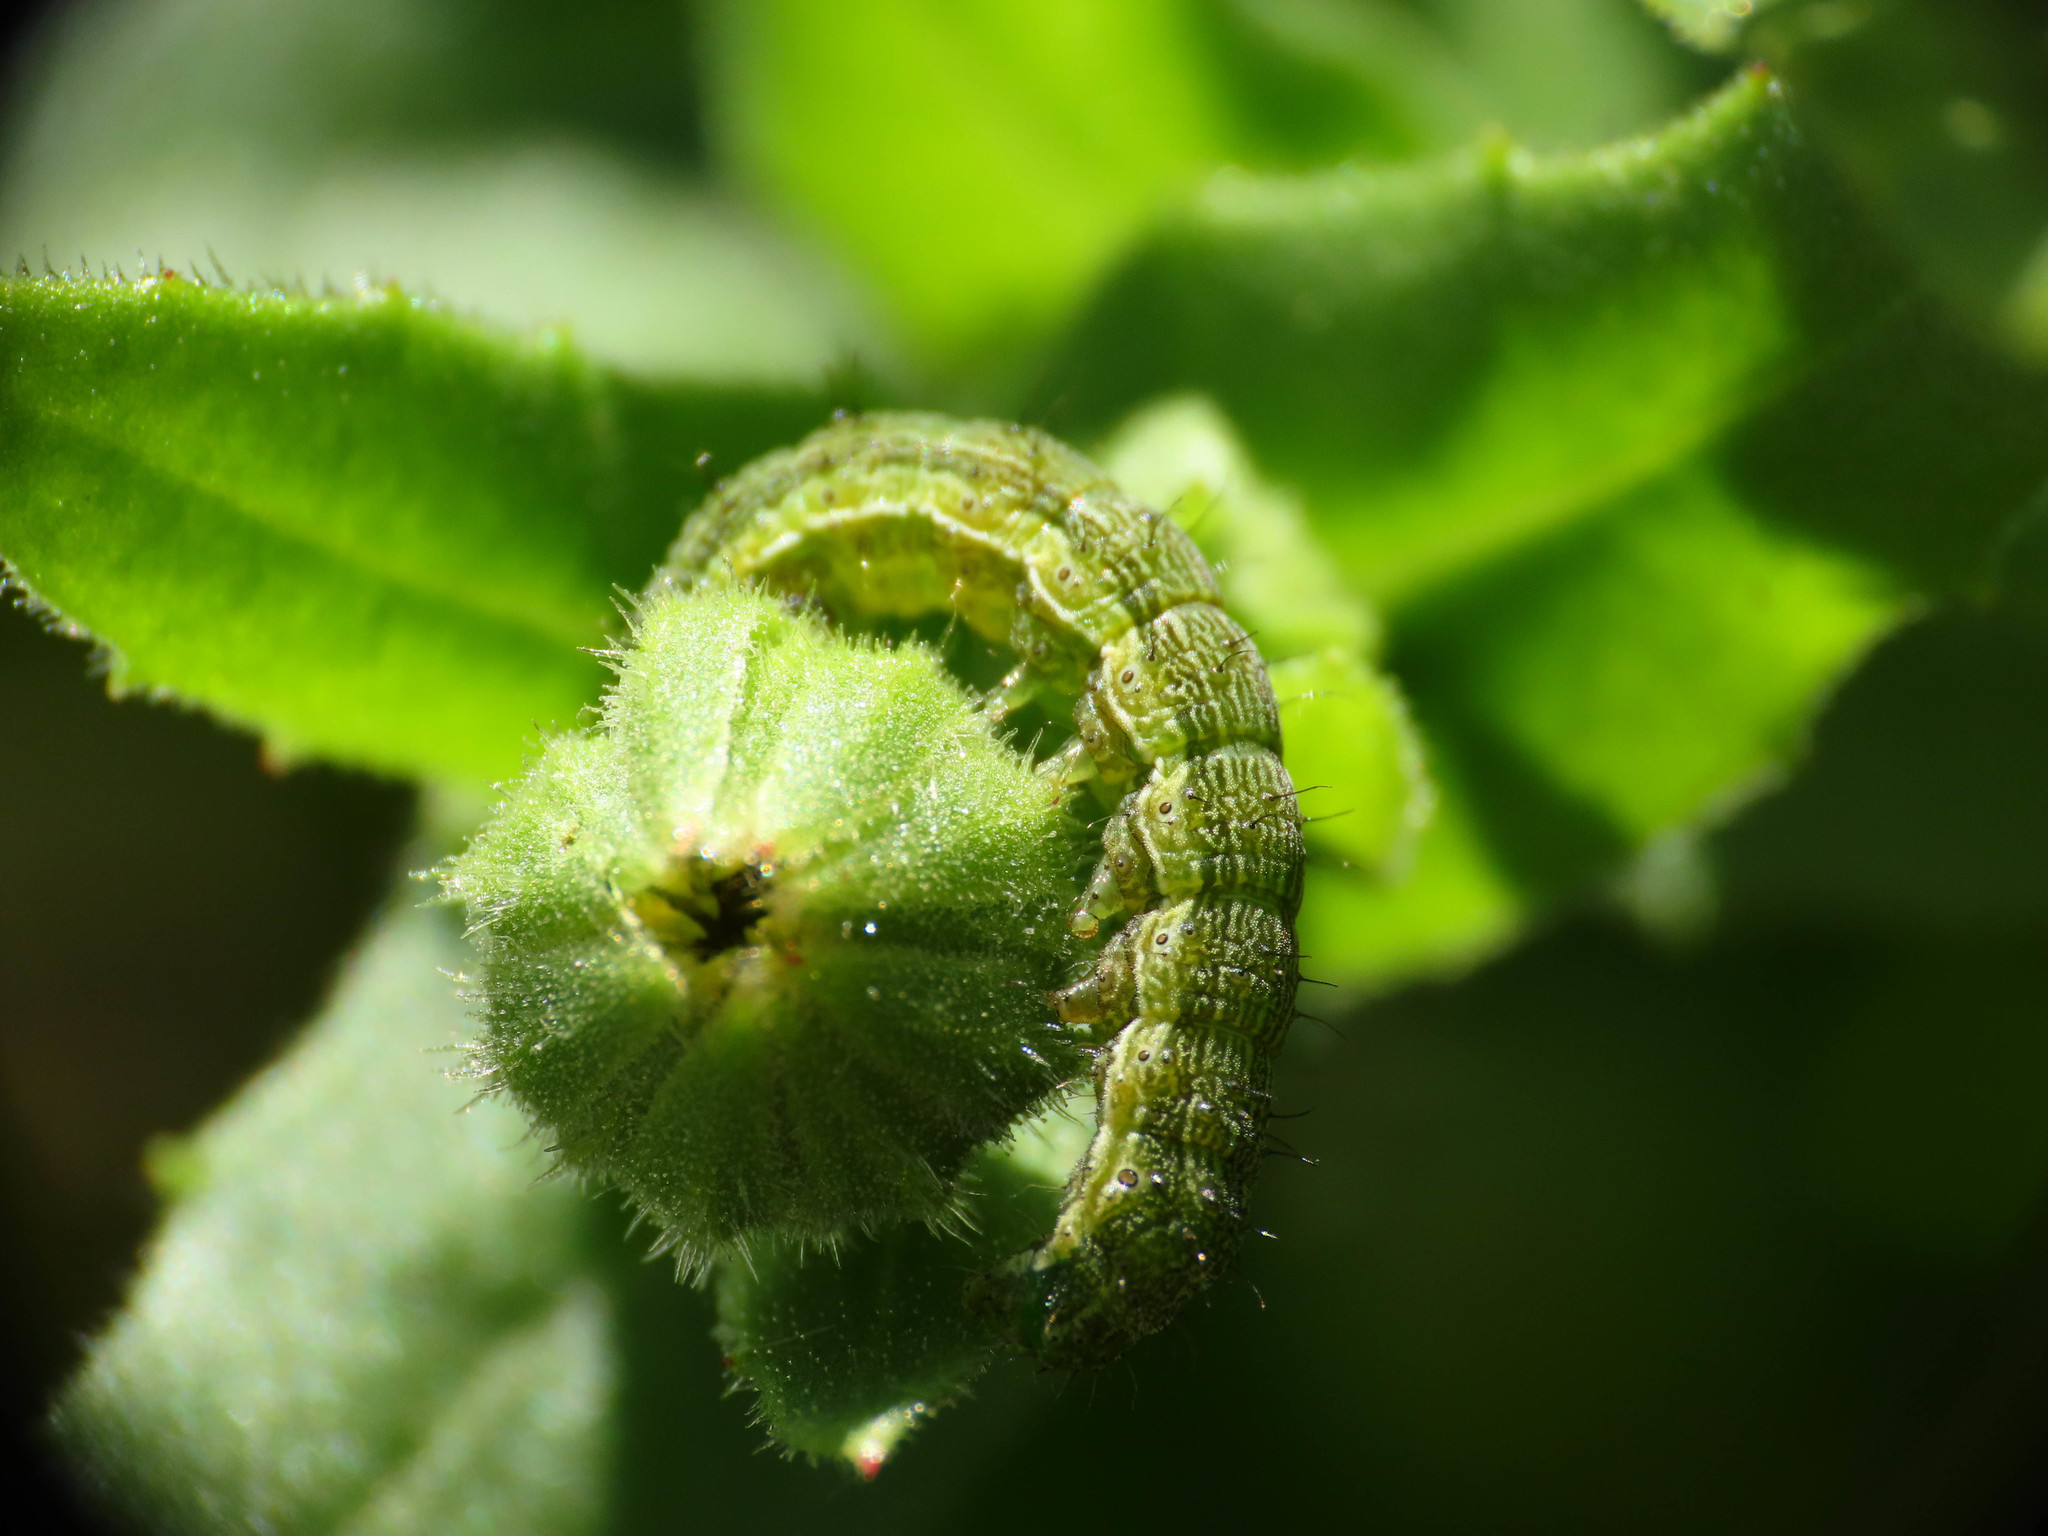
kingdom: Animalia
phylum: Arthropoda
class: Insecta
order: Lepidoptera
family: Noctuidae
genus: Helicoverpa
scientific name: Helicoverpa armigera
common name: Cotton bollworm
